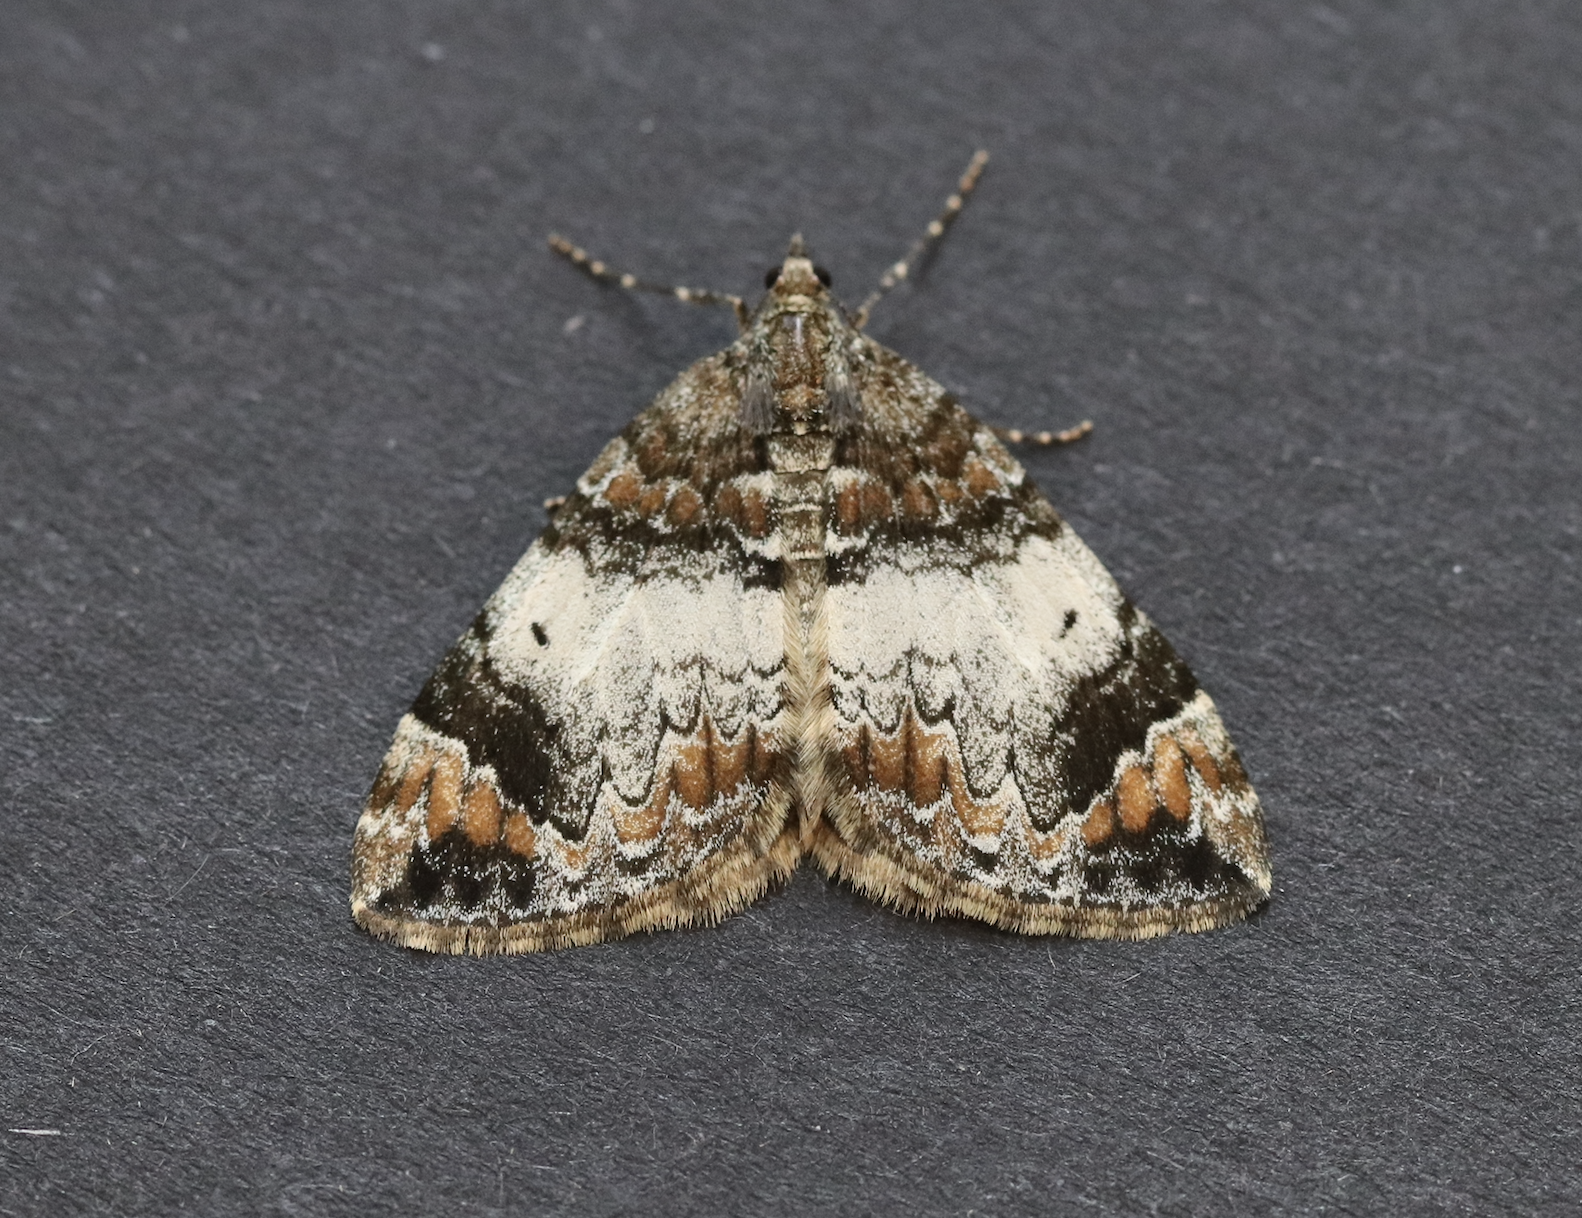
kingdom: Animalia
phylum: Arthropoda
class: Insecta
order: Lepidoptera
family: Geometridae
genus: Dysstroma
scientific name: Dysstroma truncata
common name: Common marbled carpet
